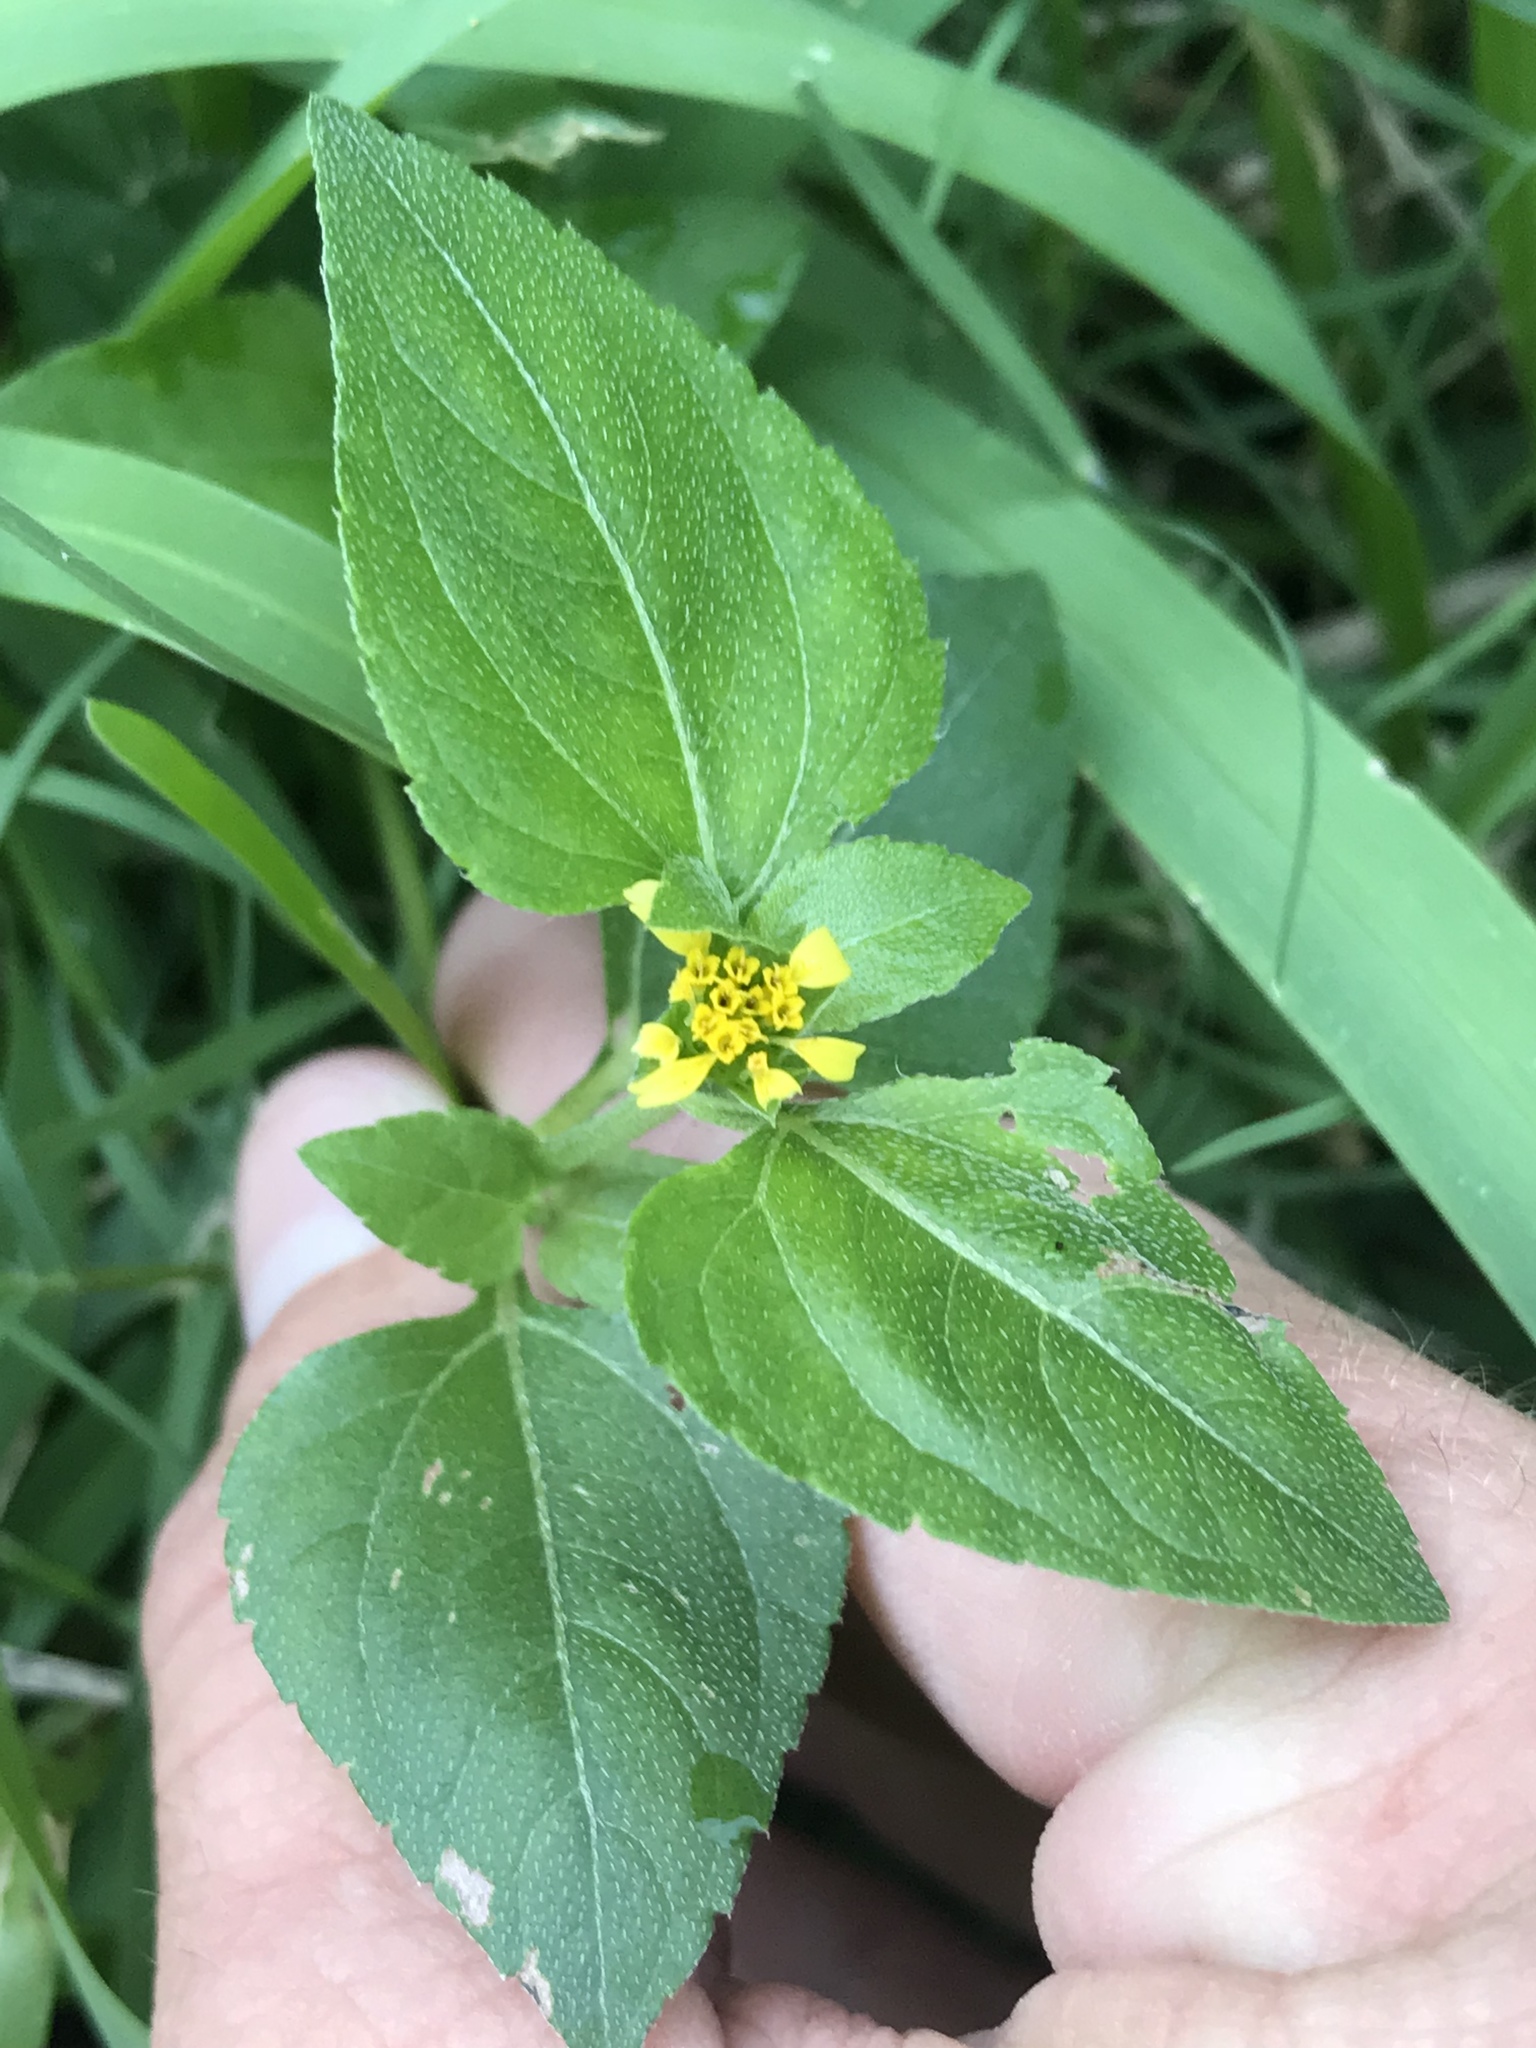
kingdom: Plantae
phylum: Tracheophyta
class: Magnoliopsida
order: Asterales
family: Asteraceae
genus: Calyptocarpus
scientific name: Calyptocarpus vialis
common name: Straggler daisy
